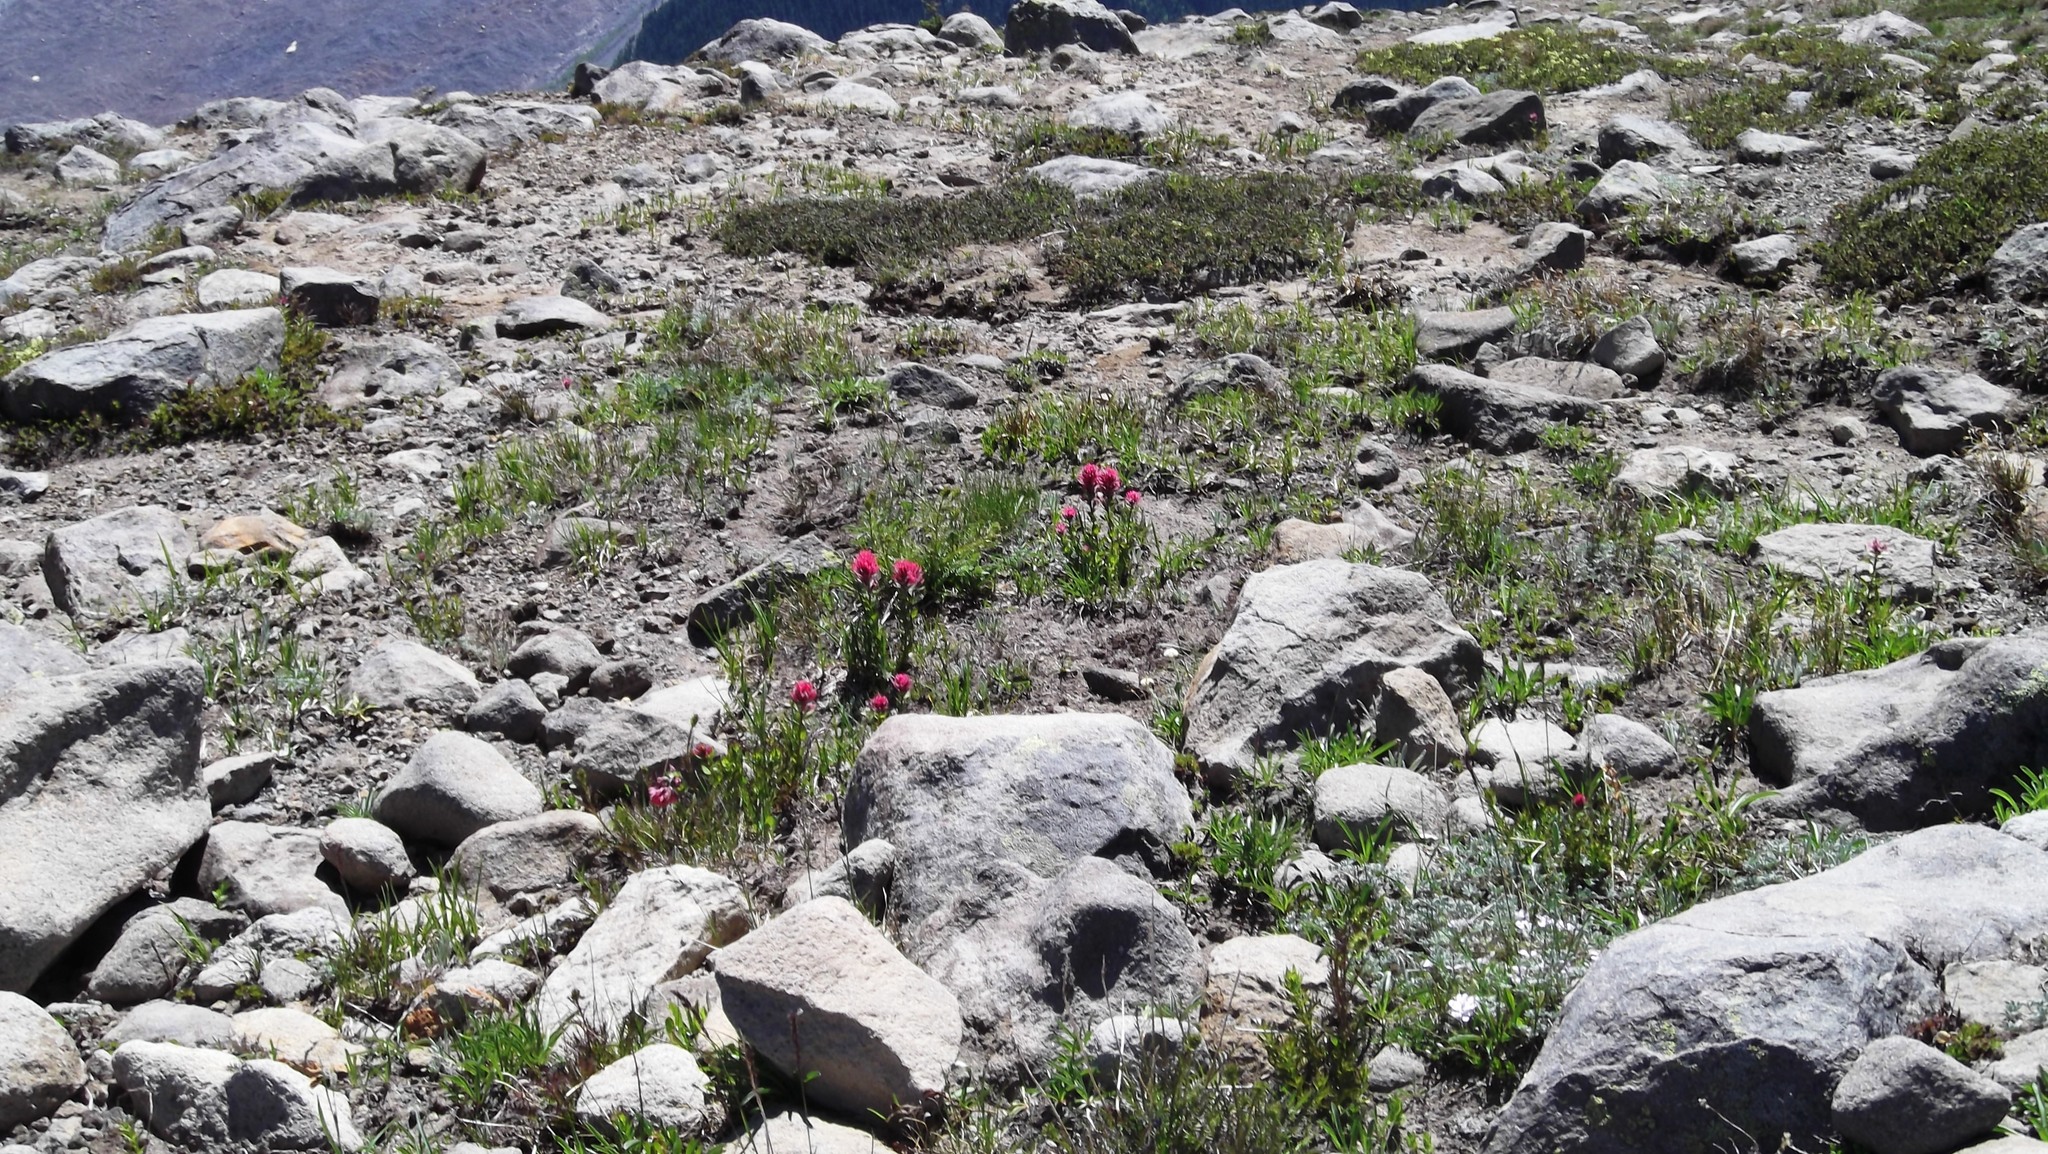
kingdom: Plantae
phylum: Tracheophyta
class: Magnoliopsida
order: Lamiales
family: Orobanchaceae
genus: Castilleja
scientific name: Castilleja parviflora
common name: Mountain paintbrush
